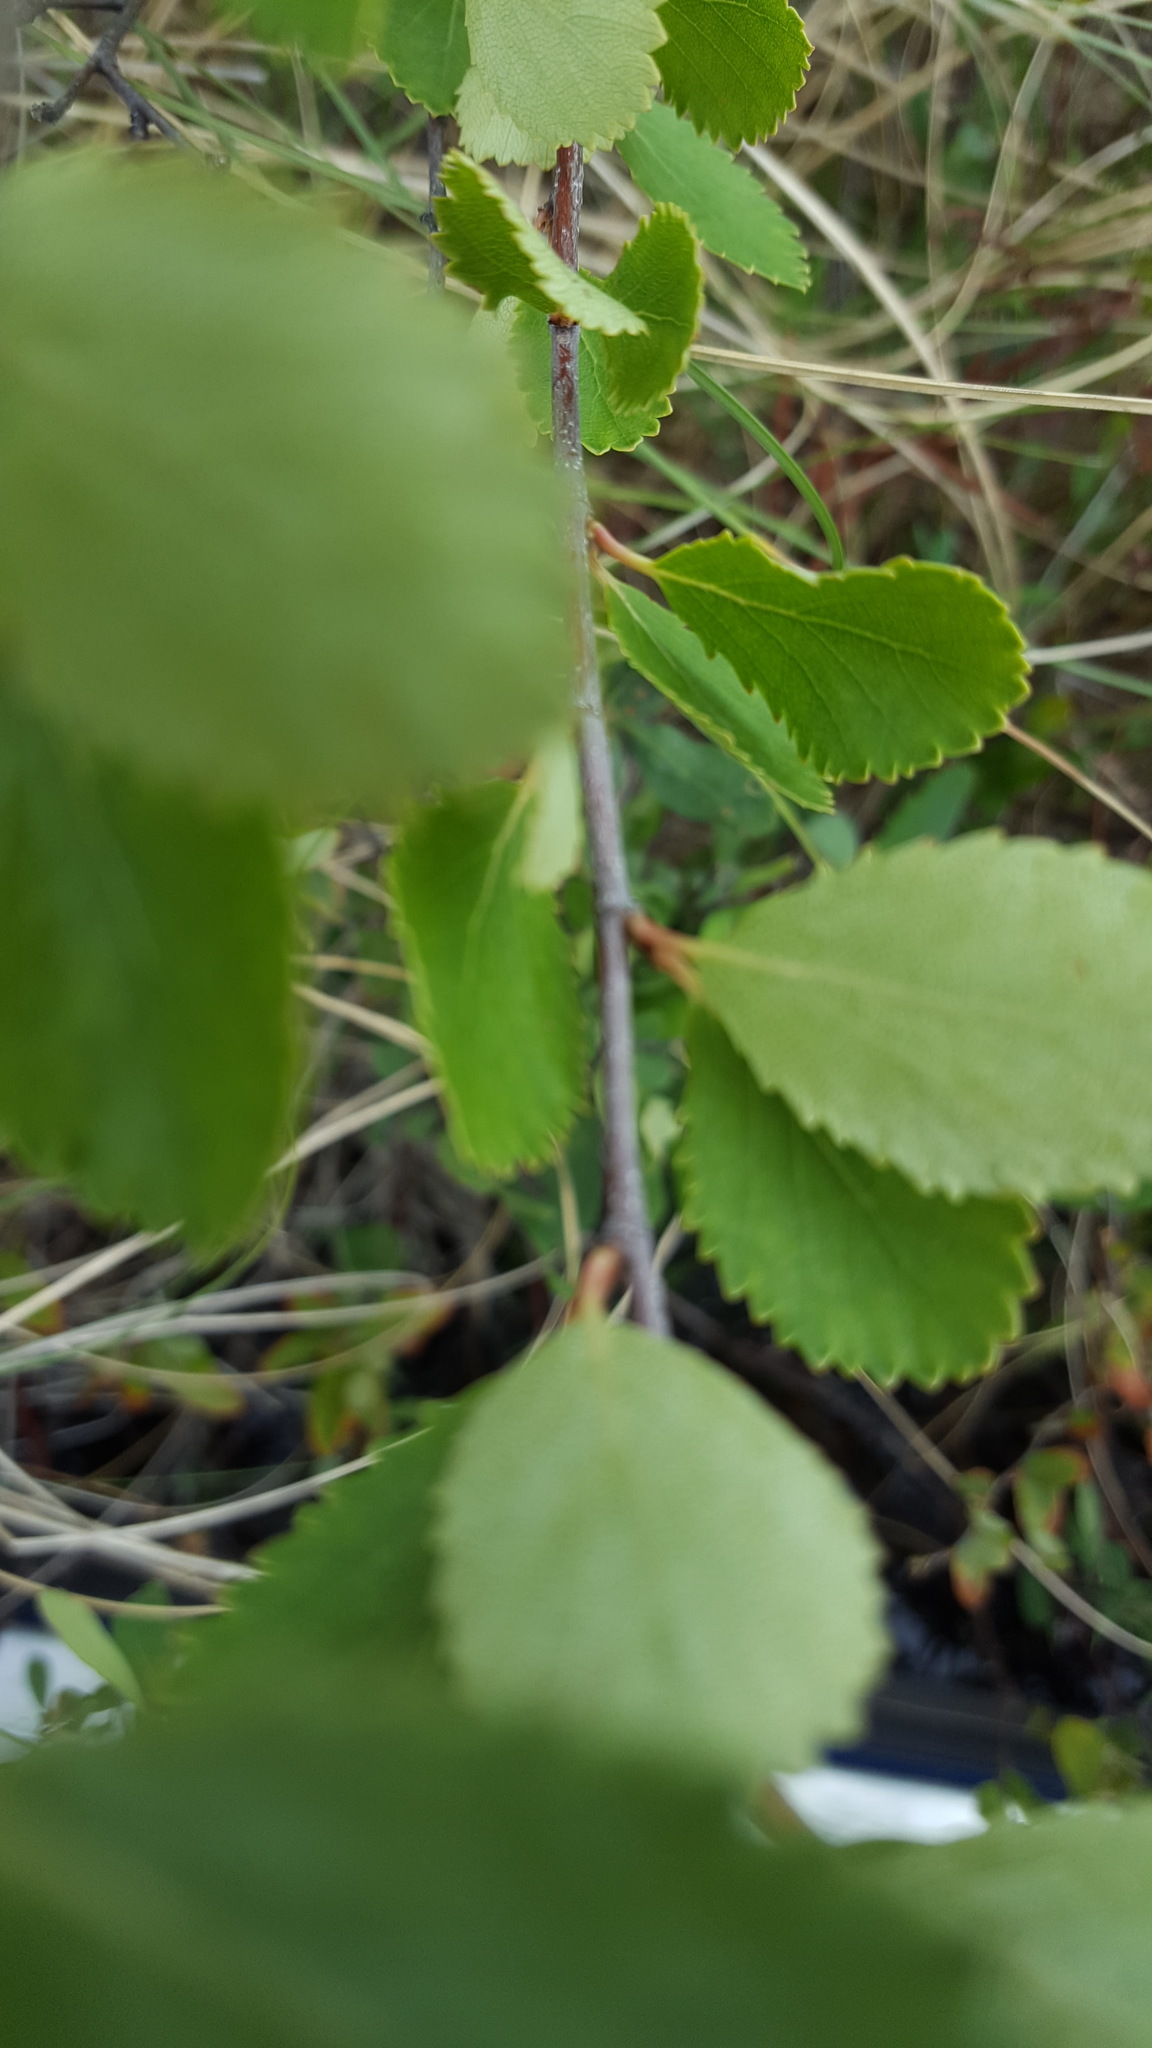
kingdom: Plantae
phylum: Tracheophyta
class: Magnoliopsida
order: Fagales
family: Betulaceae
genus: Betula
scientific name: Betula pumila
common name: Bog birch
